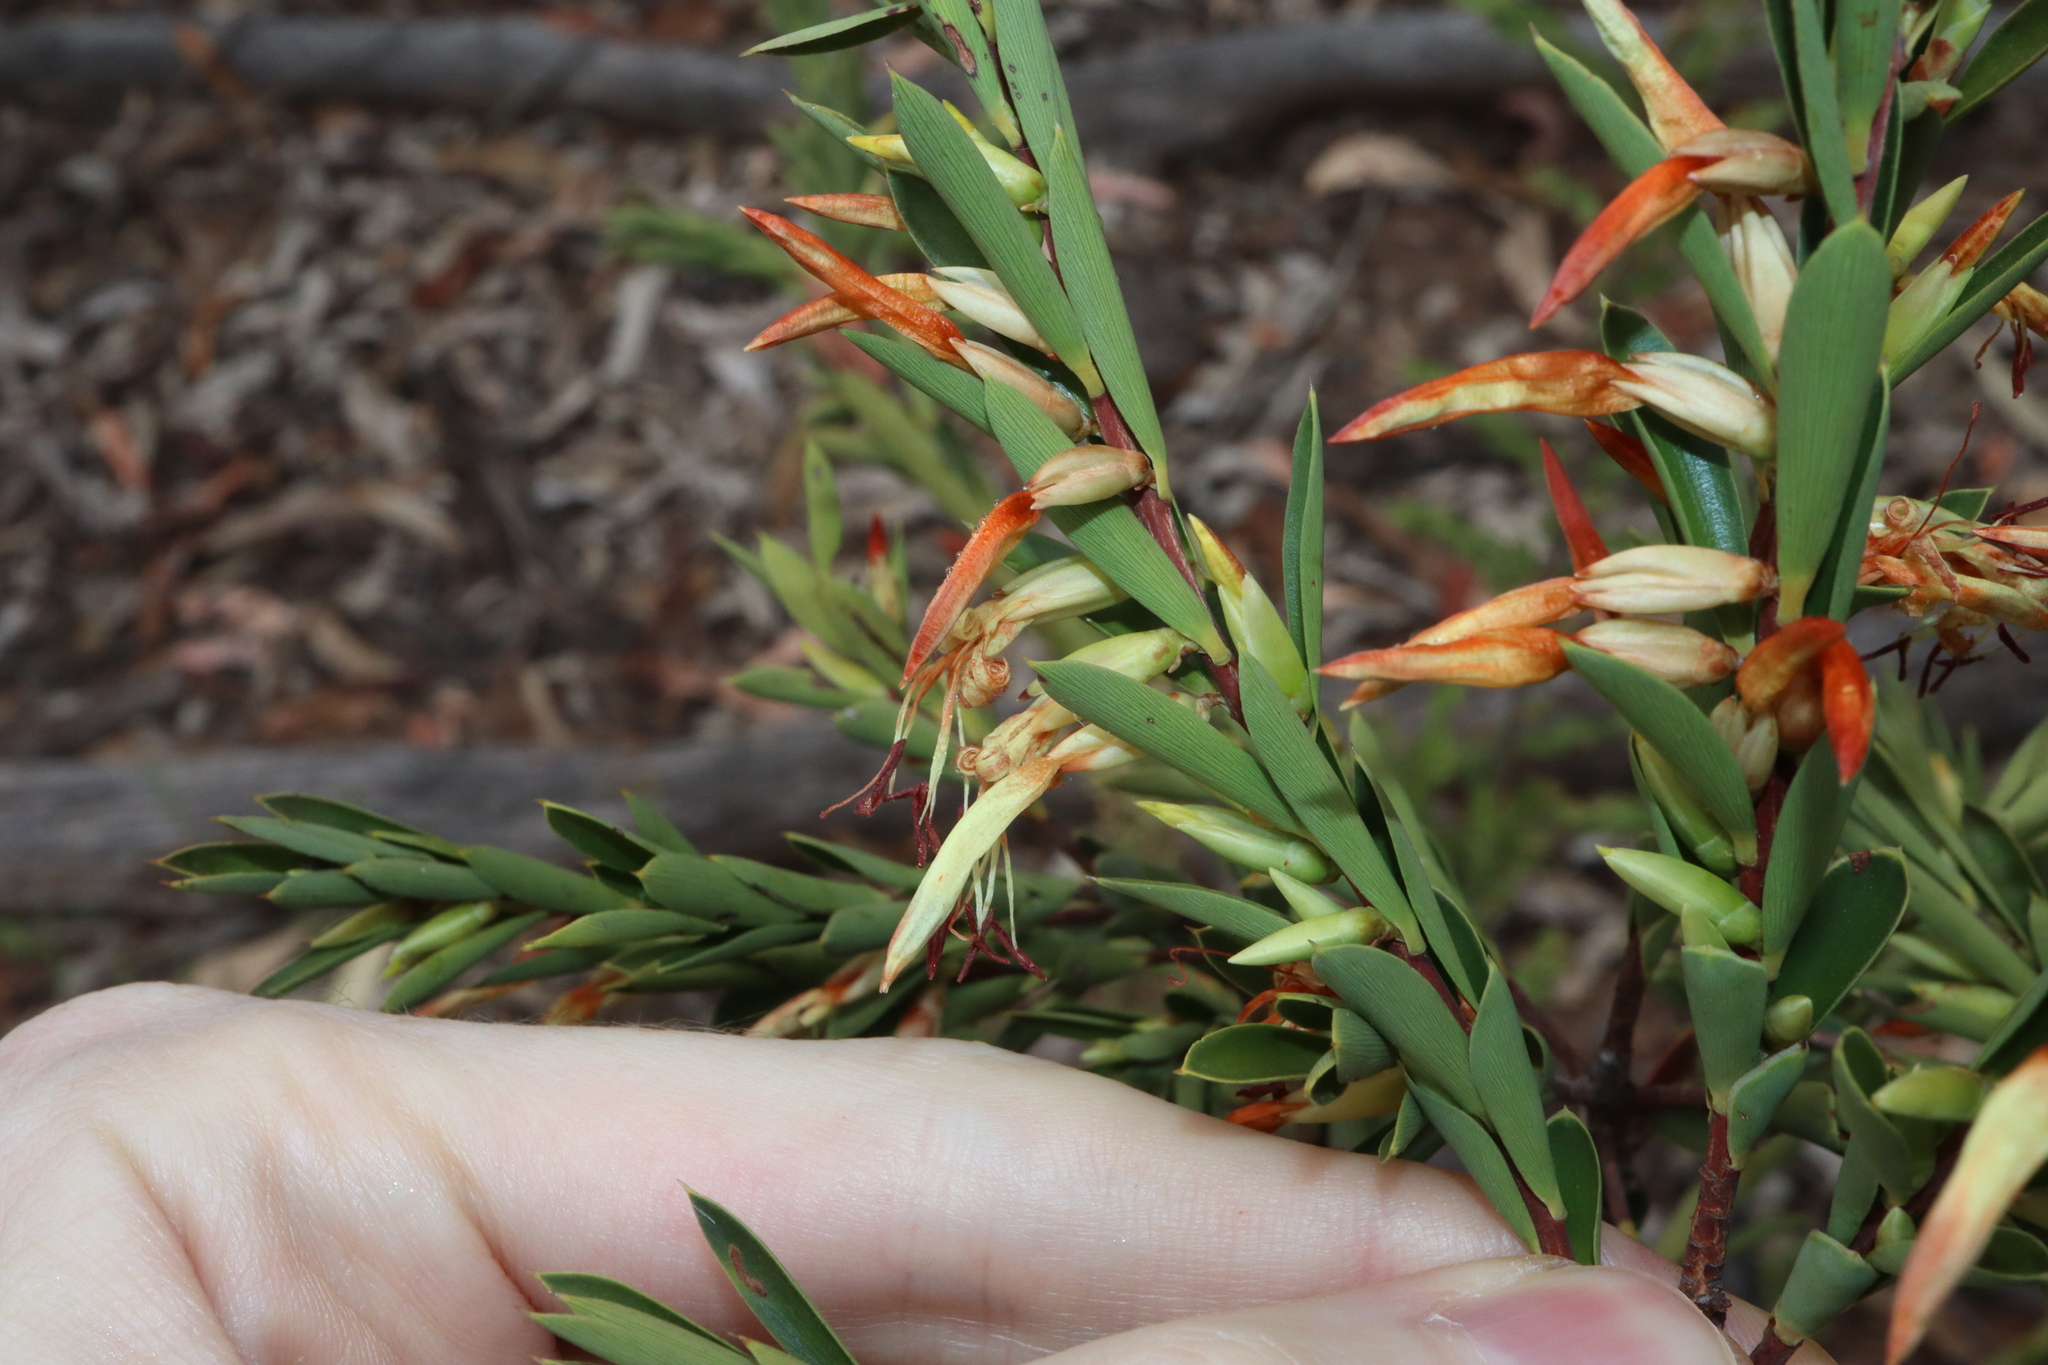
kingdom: Plantae
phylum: Tracheophyta
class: Magnoliopsida
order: Ericales
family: Ericaceae
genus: Styphelia
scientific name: Styphelia triflora
